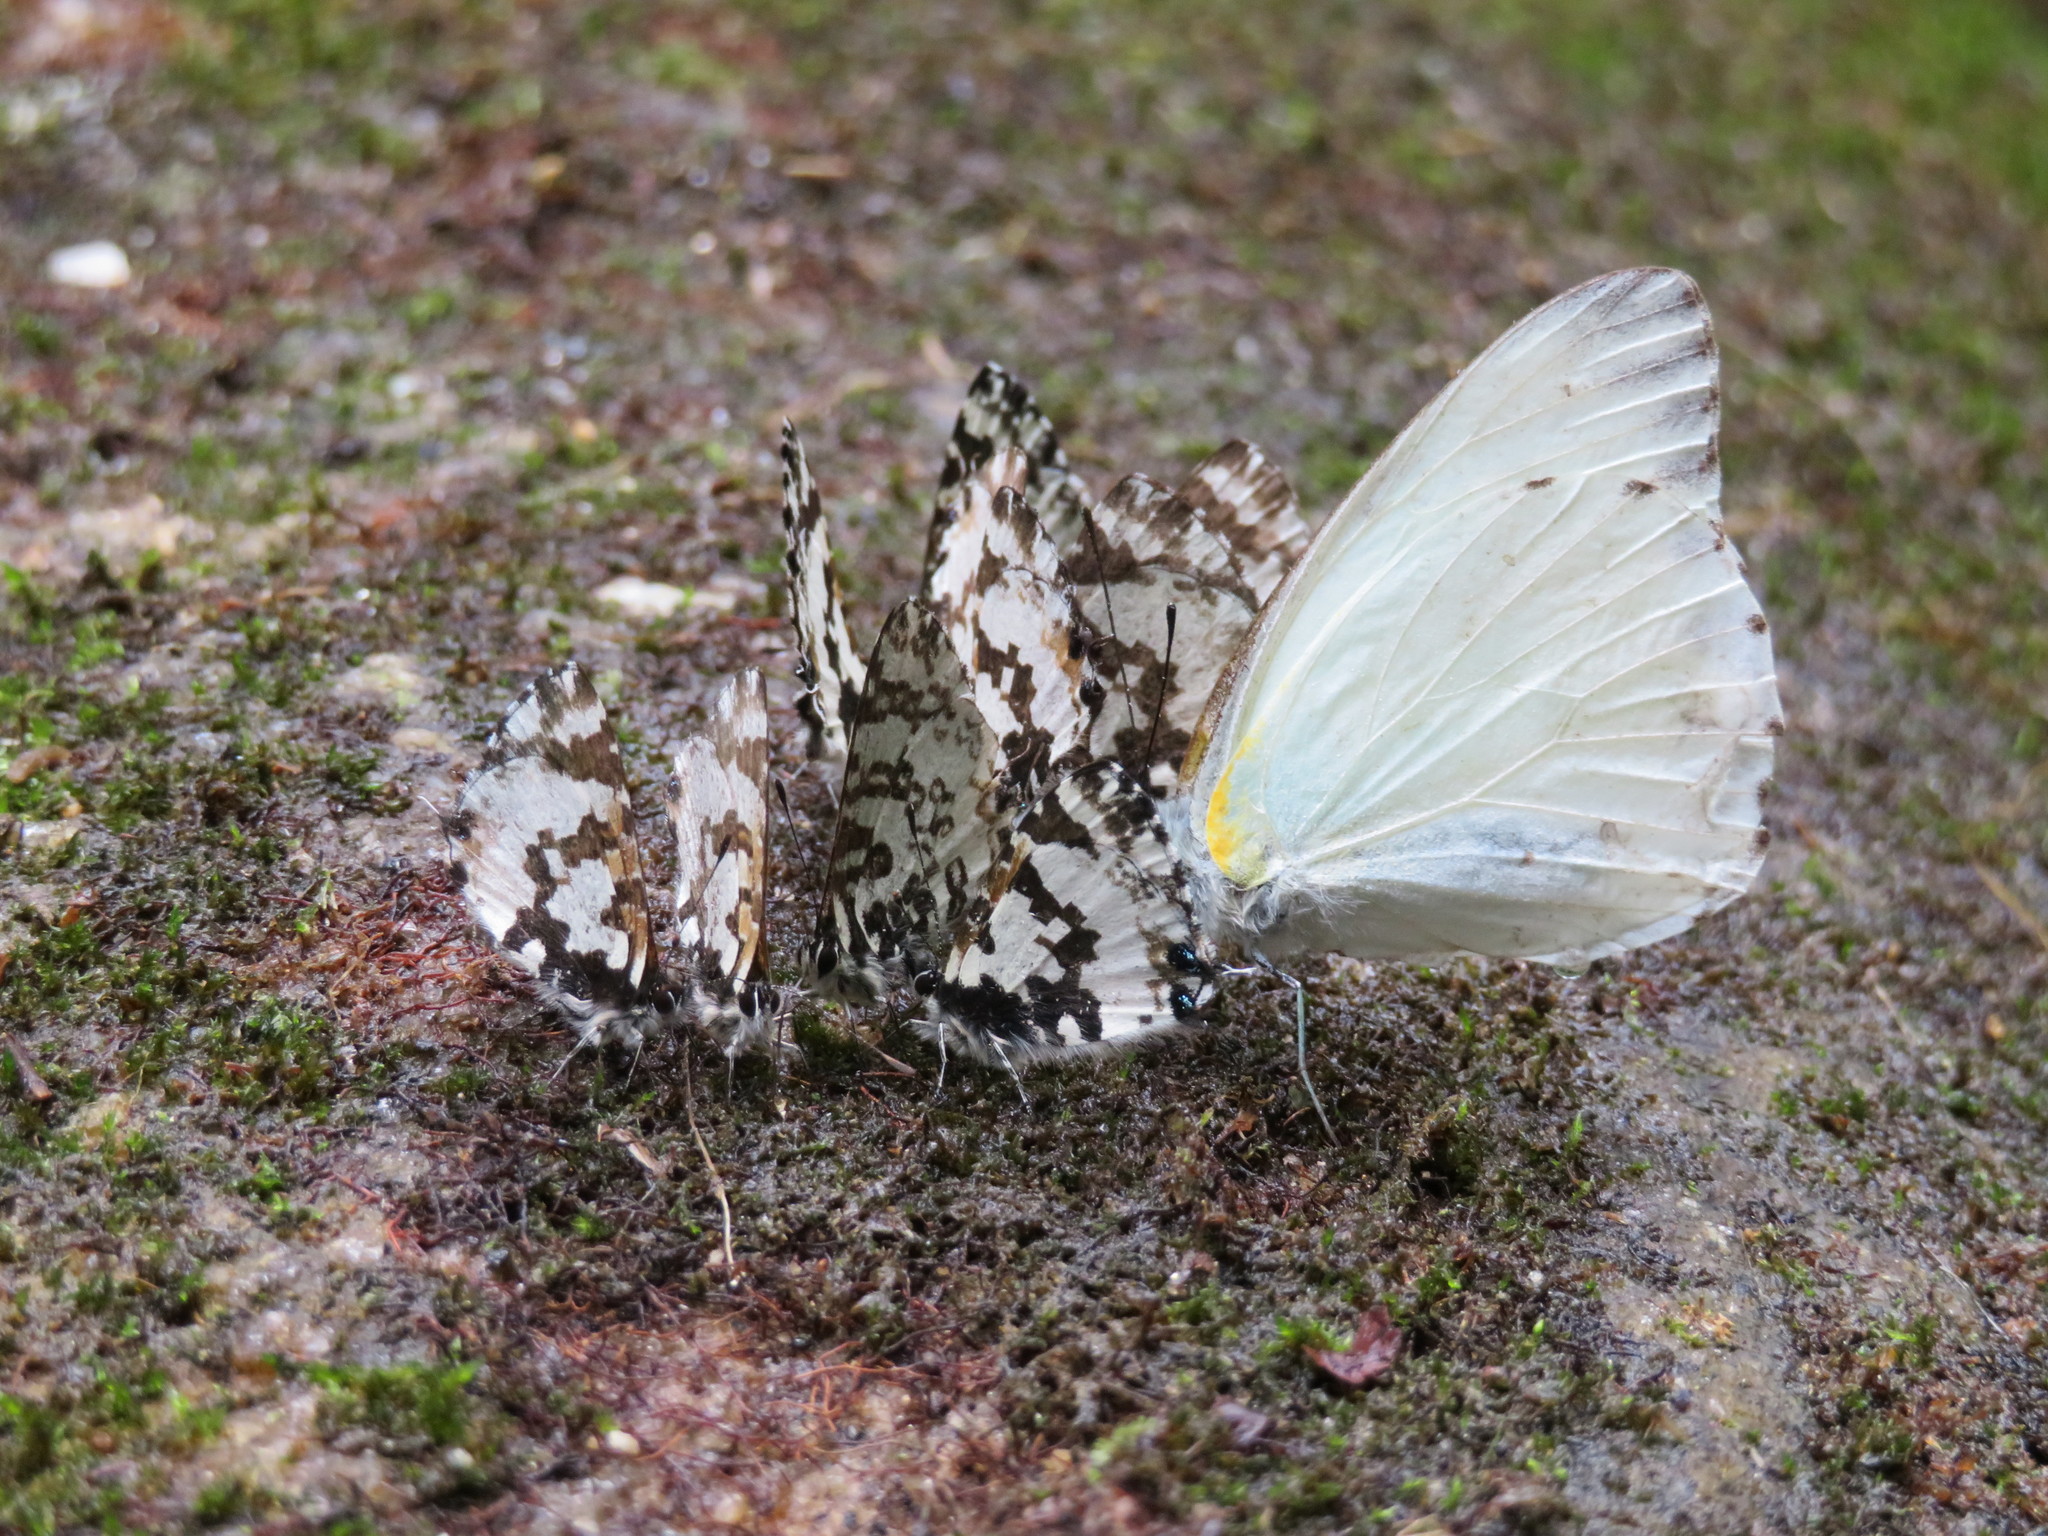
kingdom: Animalia
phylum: Arthropoda
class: Insecta
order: Lepidoptera
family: Lycaenidae
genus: Uranothauma
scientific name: Uranothauma falkensteini
